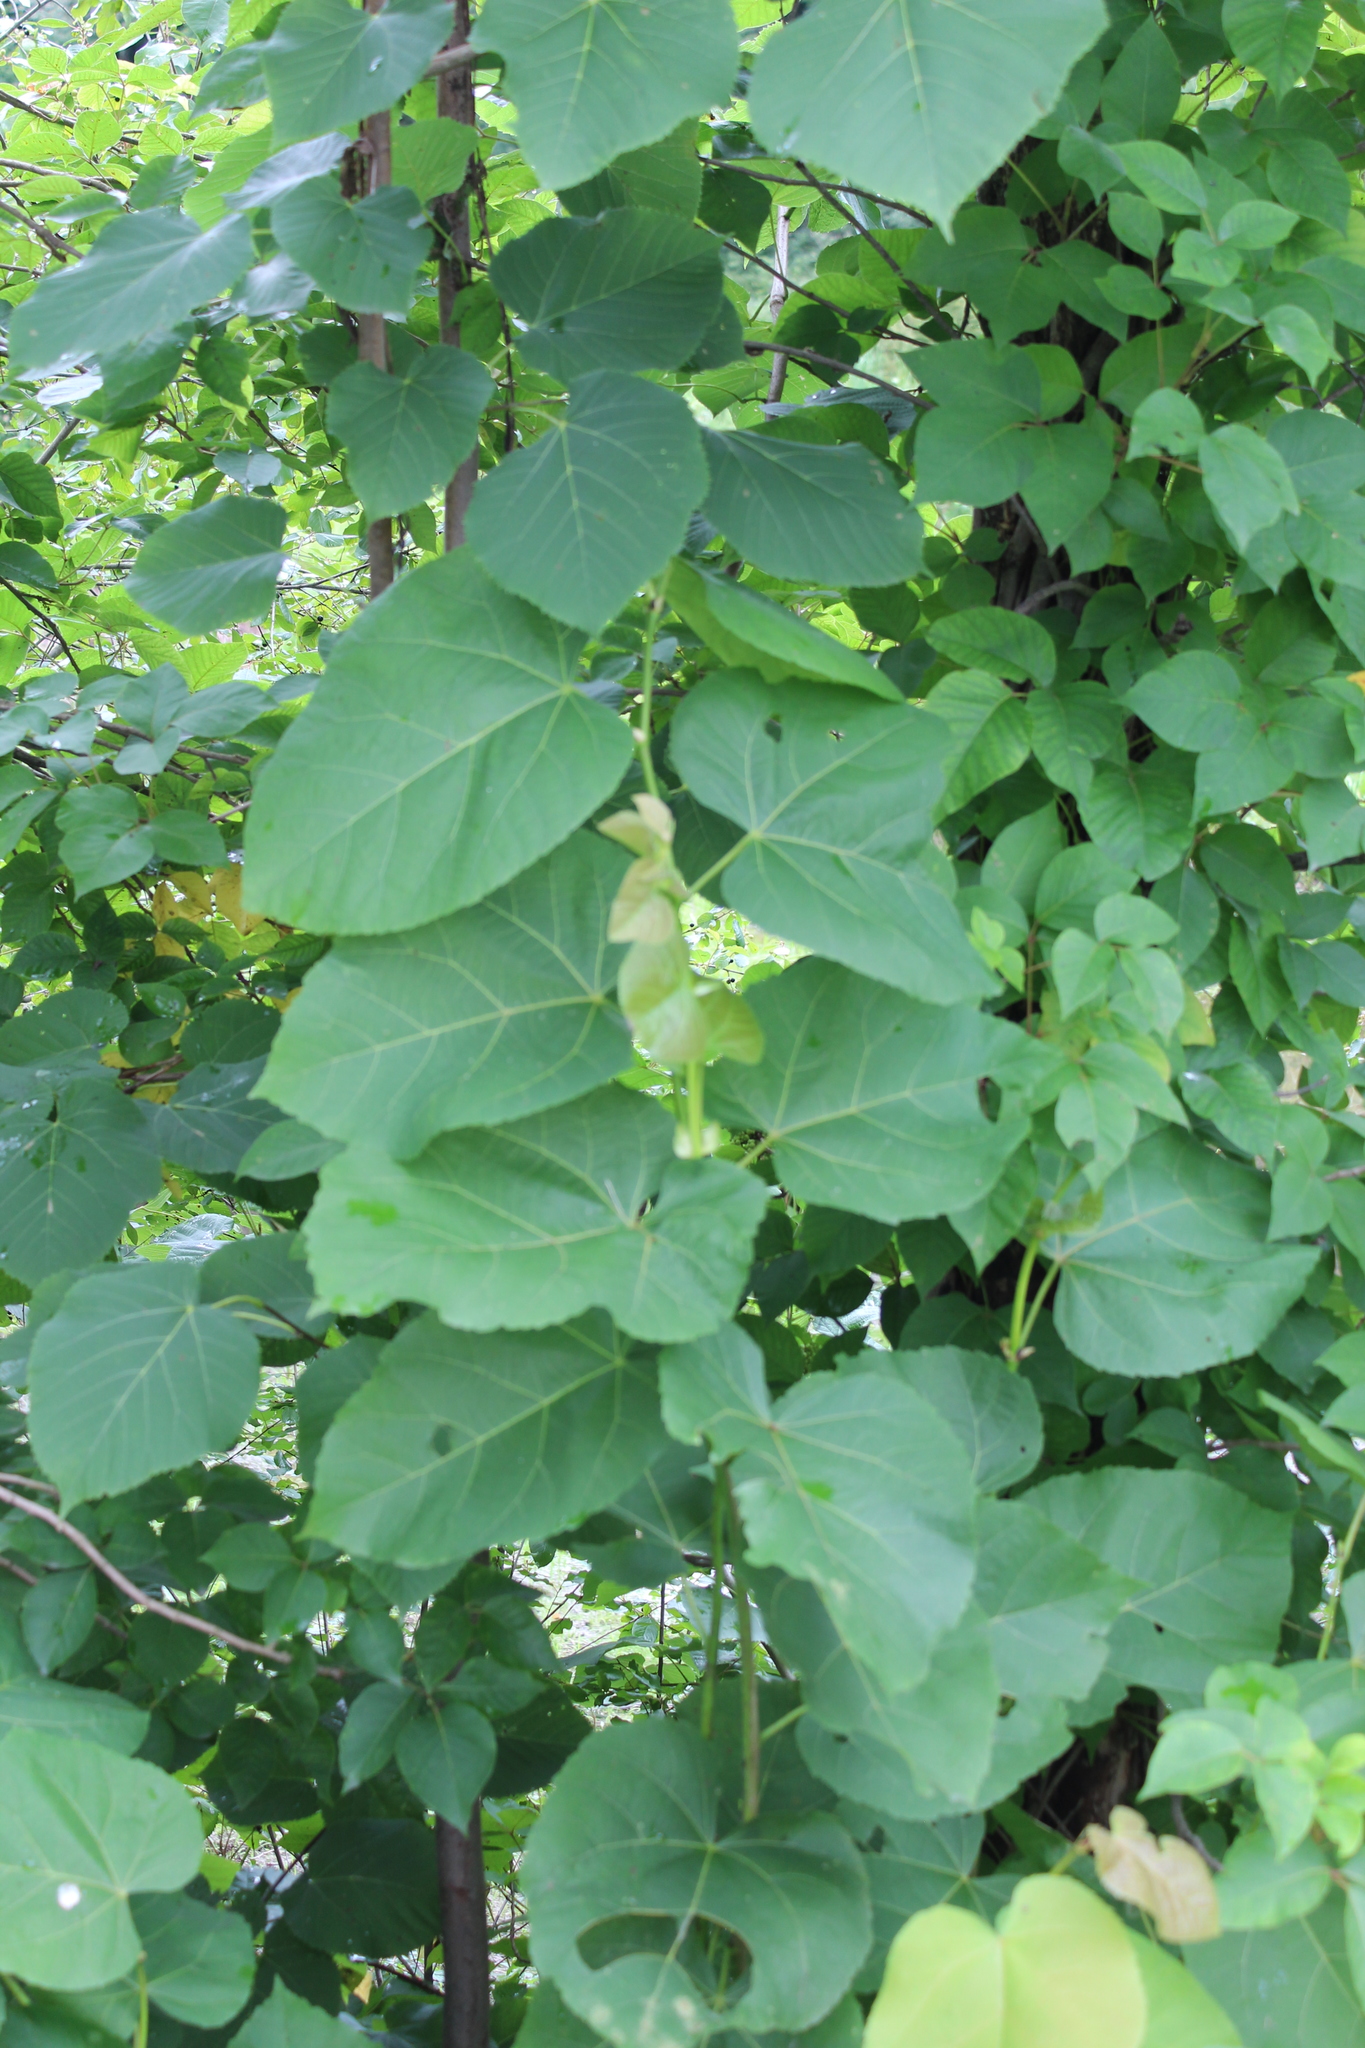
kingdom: Plantae
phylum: Tracheophyta
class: Magnoliopsida
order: Malvales
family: Malvaceae
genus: Tilia
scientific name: Tilia americana
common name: Basswood
